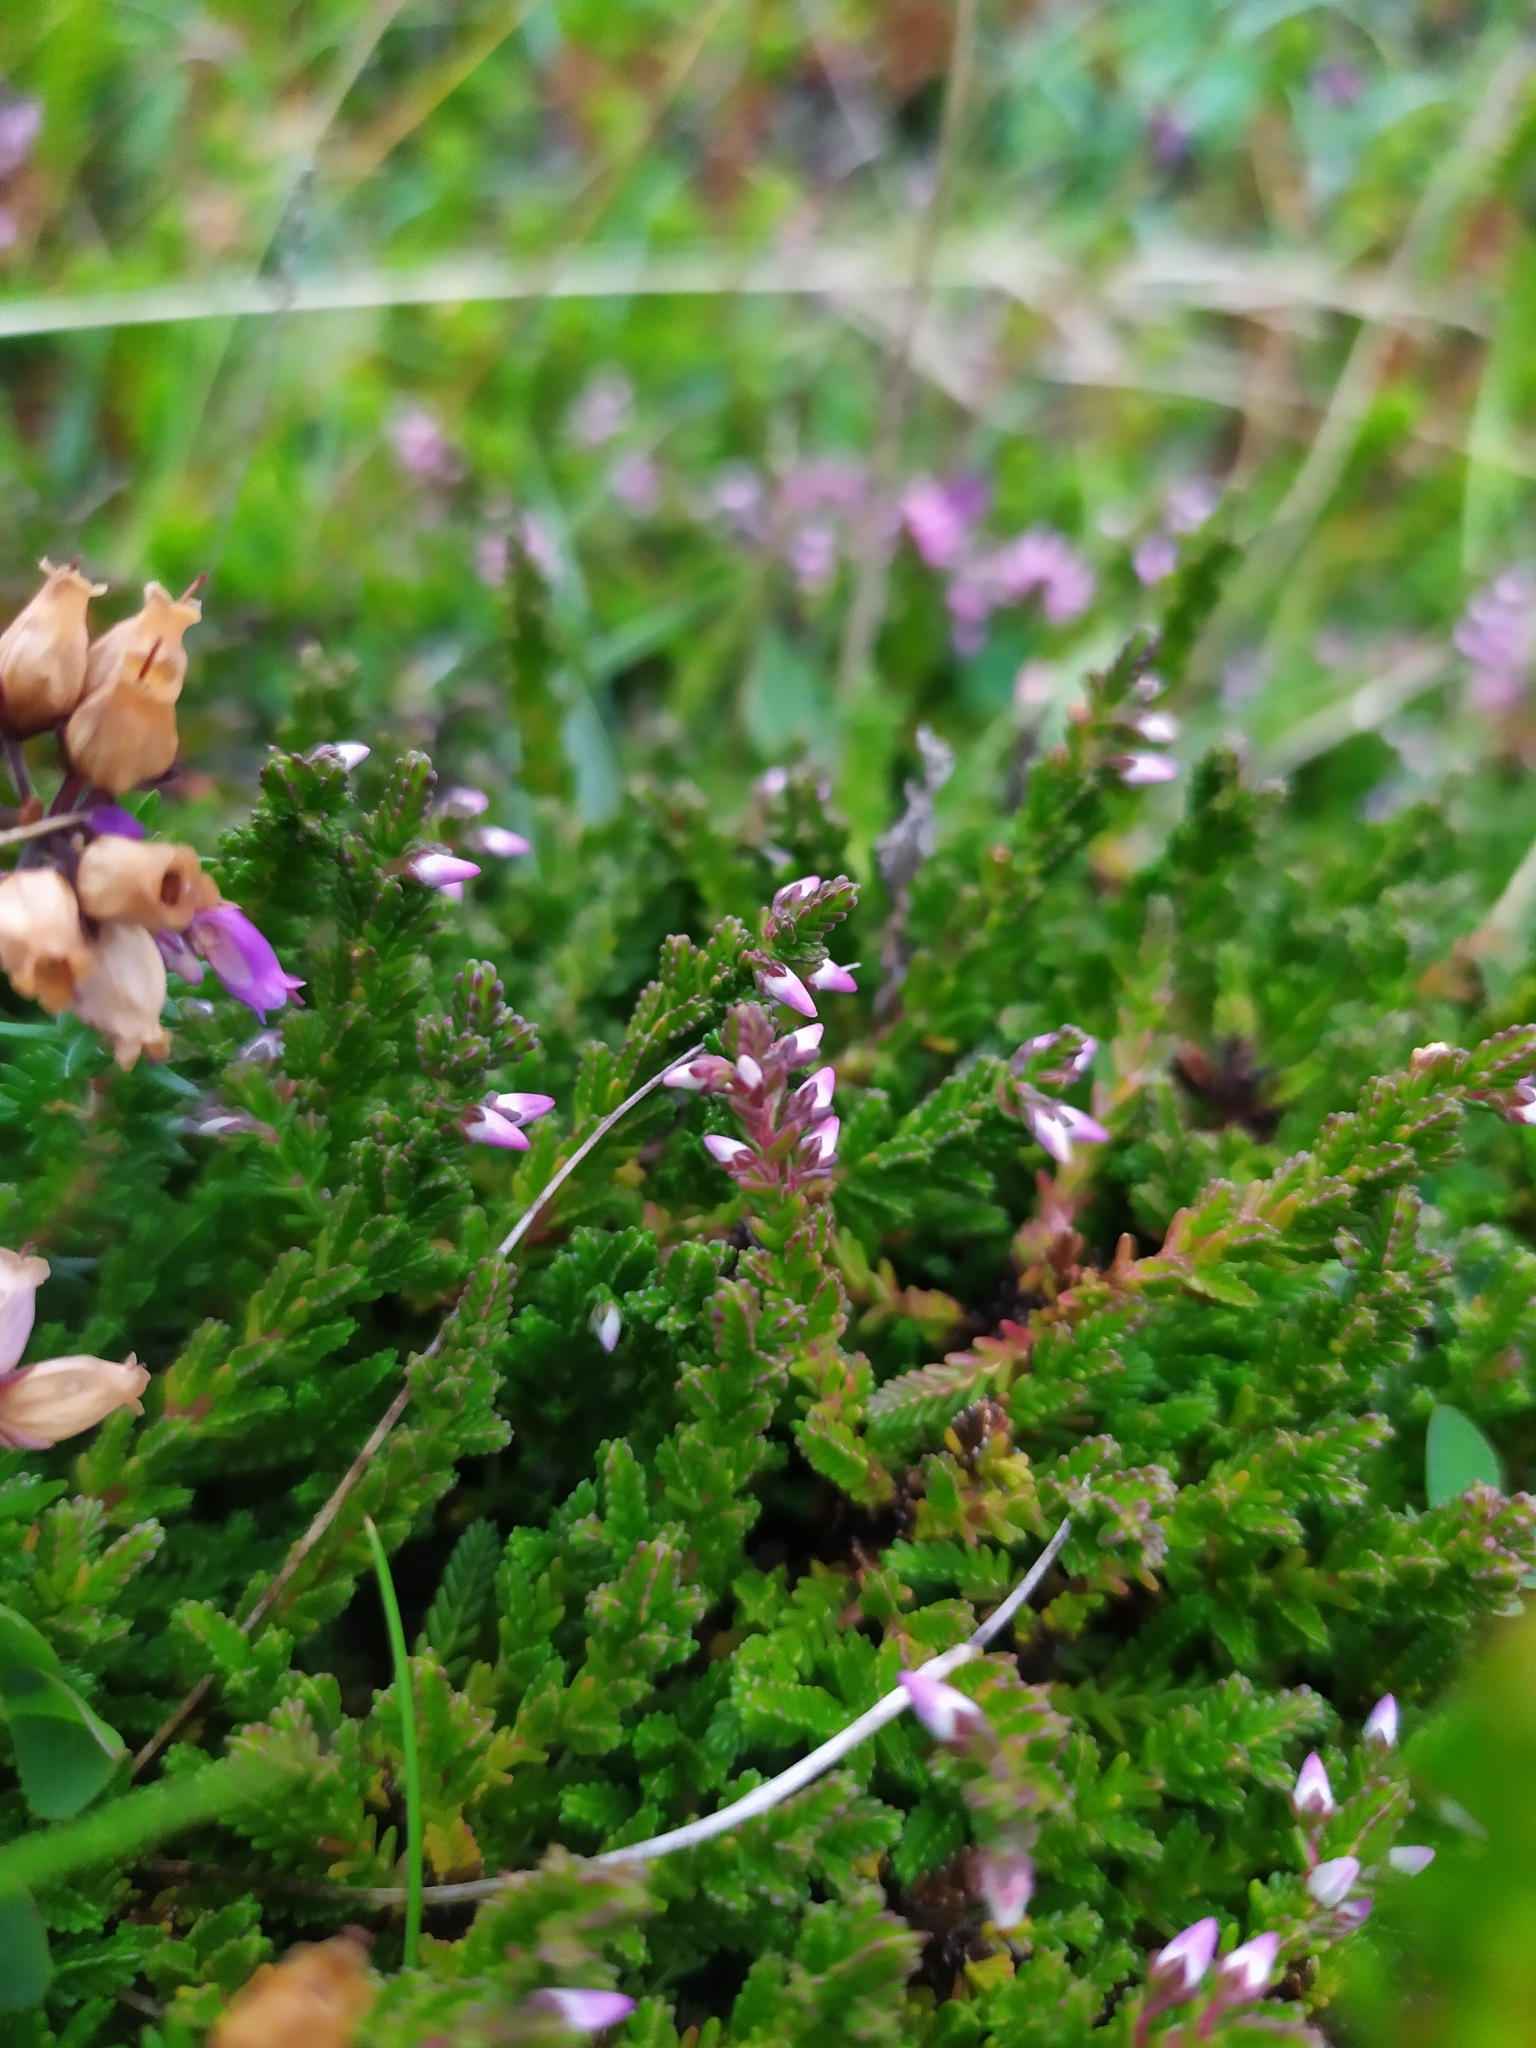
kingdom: Plantae
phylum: Tracheophyta
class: Magnoliopsida
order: Ericales
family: Ericaceae
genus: Calluna
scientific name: Calluna vulgaris
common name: Heather
